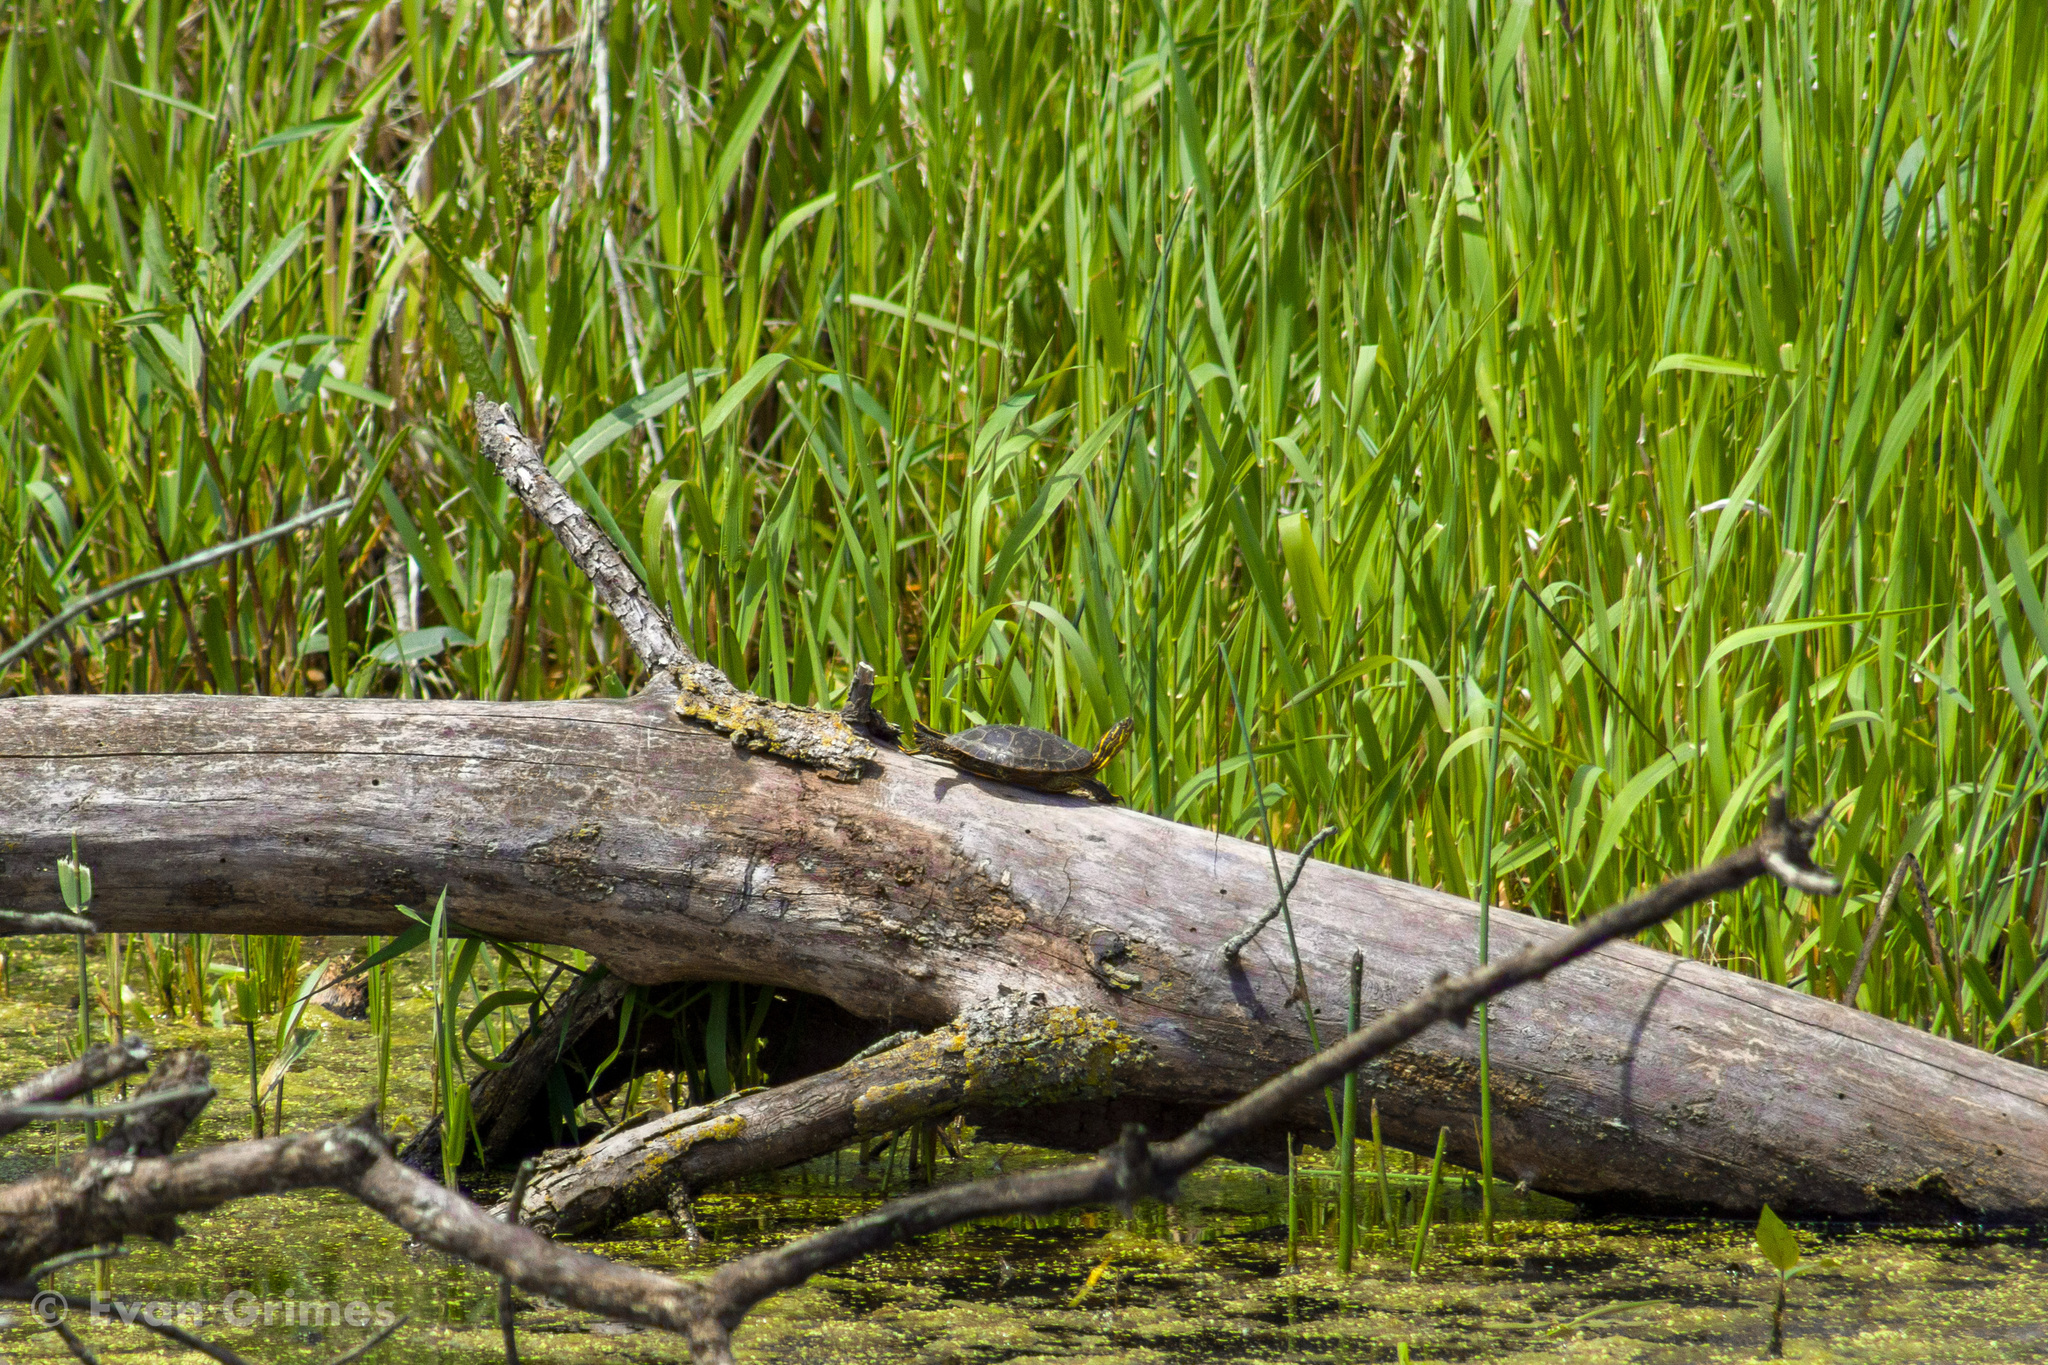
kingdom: Animalia
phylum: Chordata
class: Testudines
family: Emydidae
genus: Chrysemys
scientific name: Chrysemys picta
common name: Painted turtle
